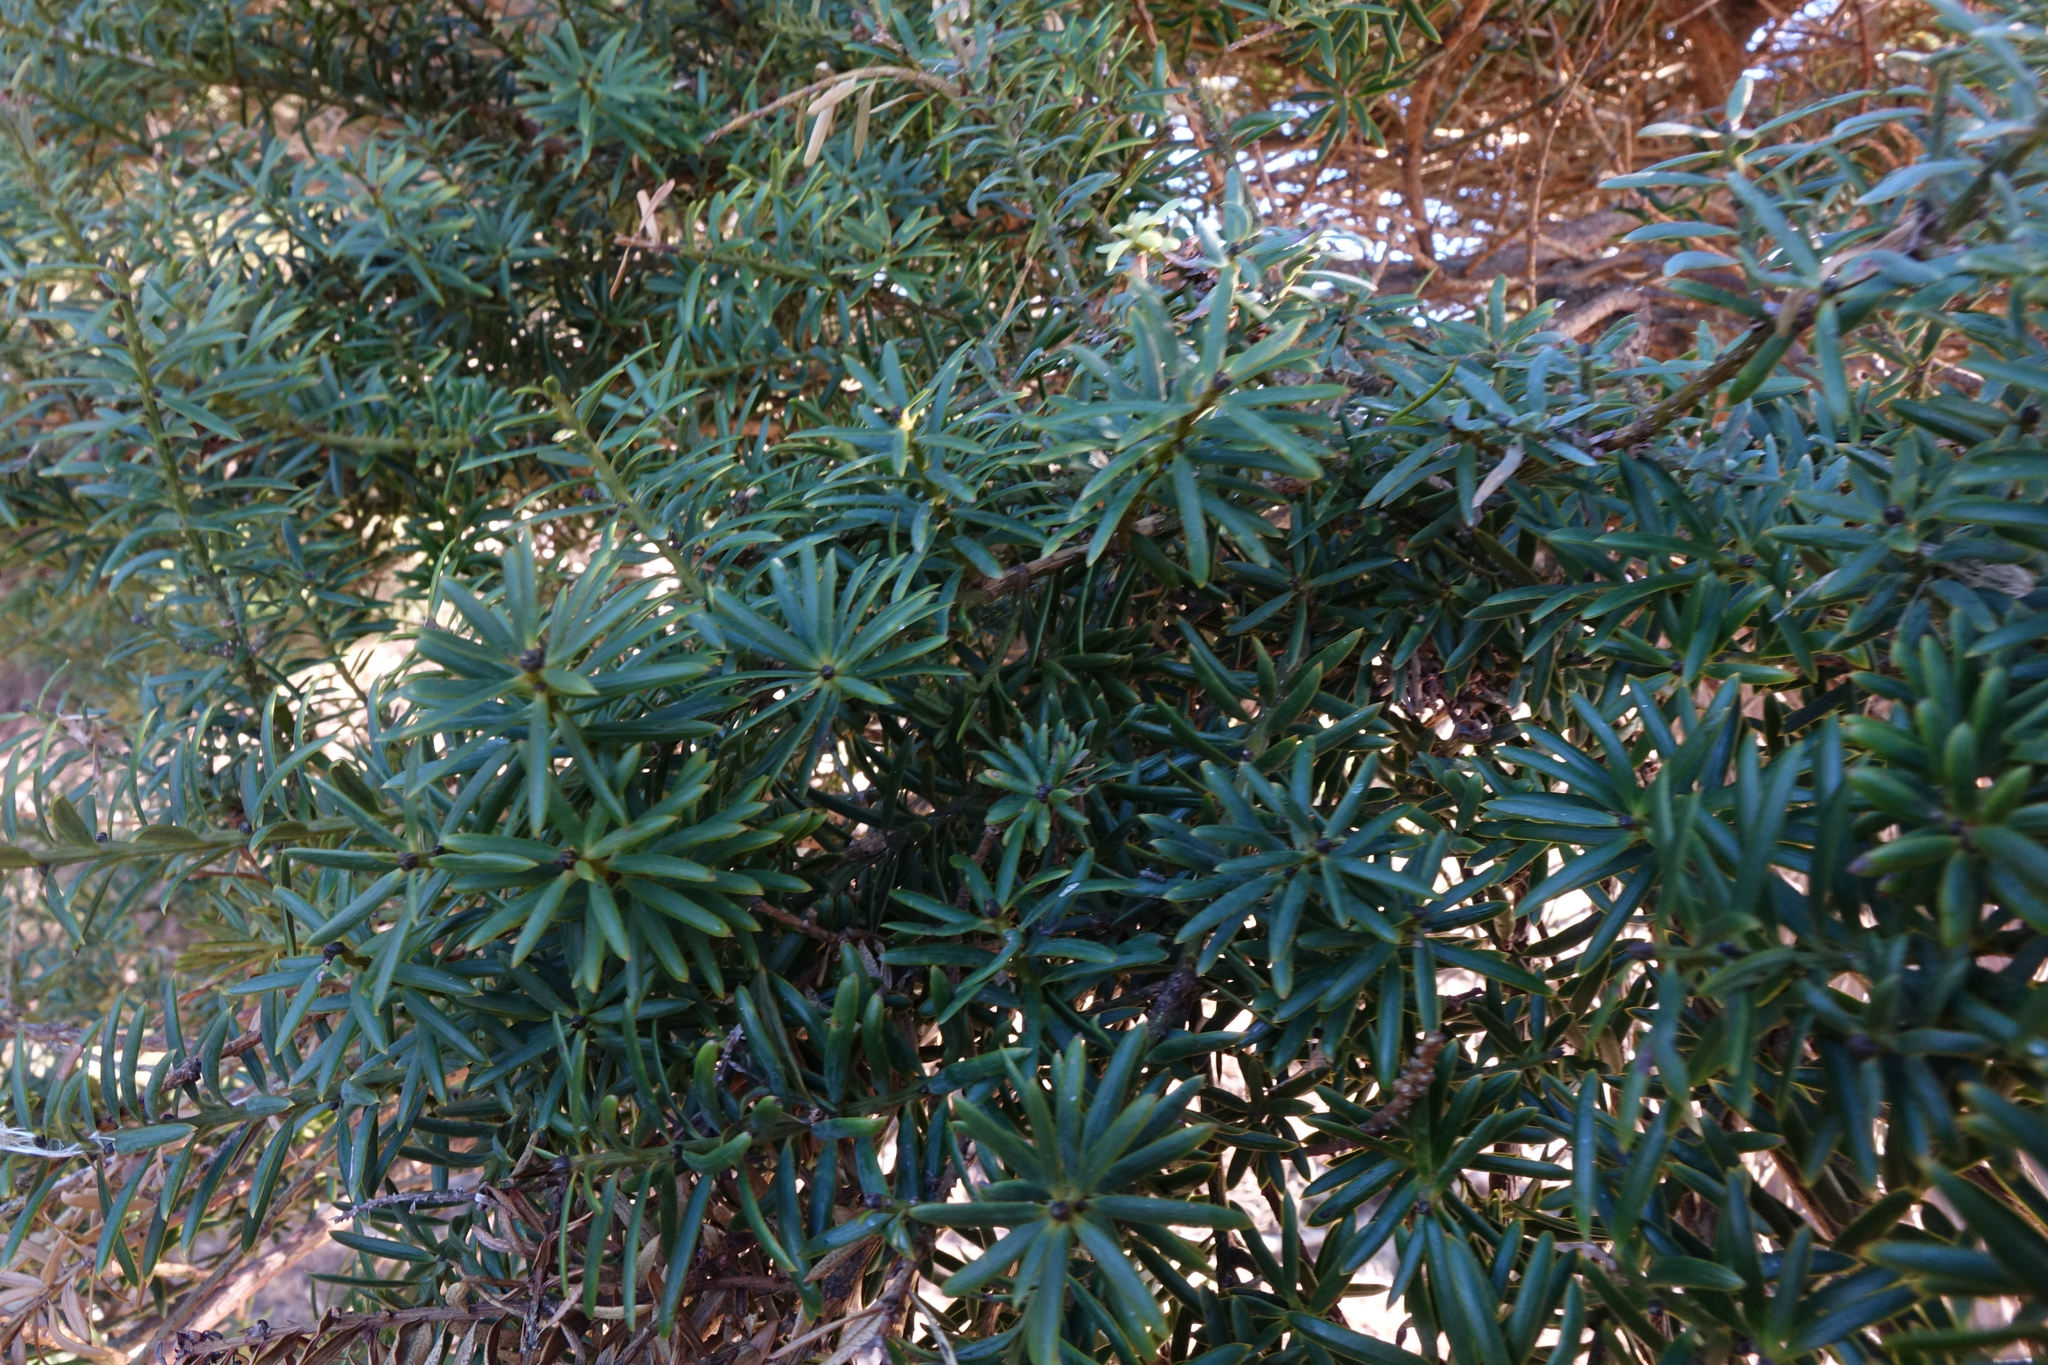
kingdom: Plantae
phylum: Tracheophyta
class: Pinopsida
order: Pinales
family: Podocarpaceae
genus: Podocarpus
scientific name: Podocarpus totara
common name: Totara
